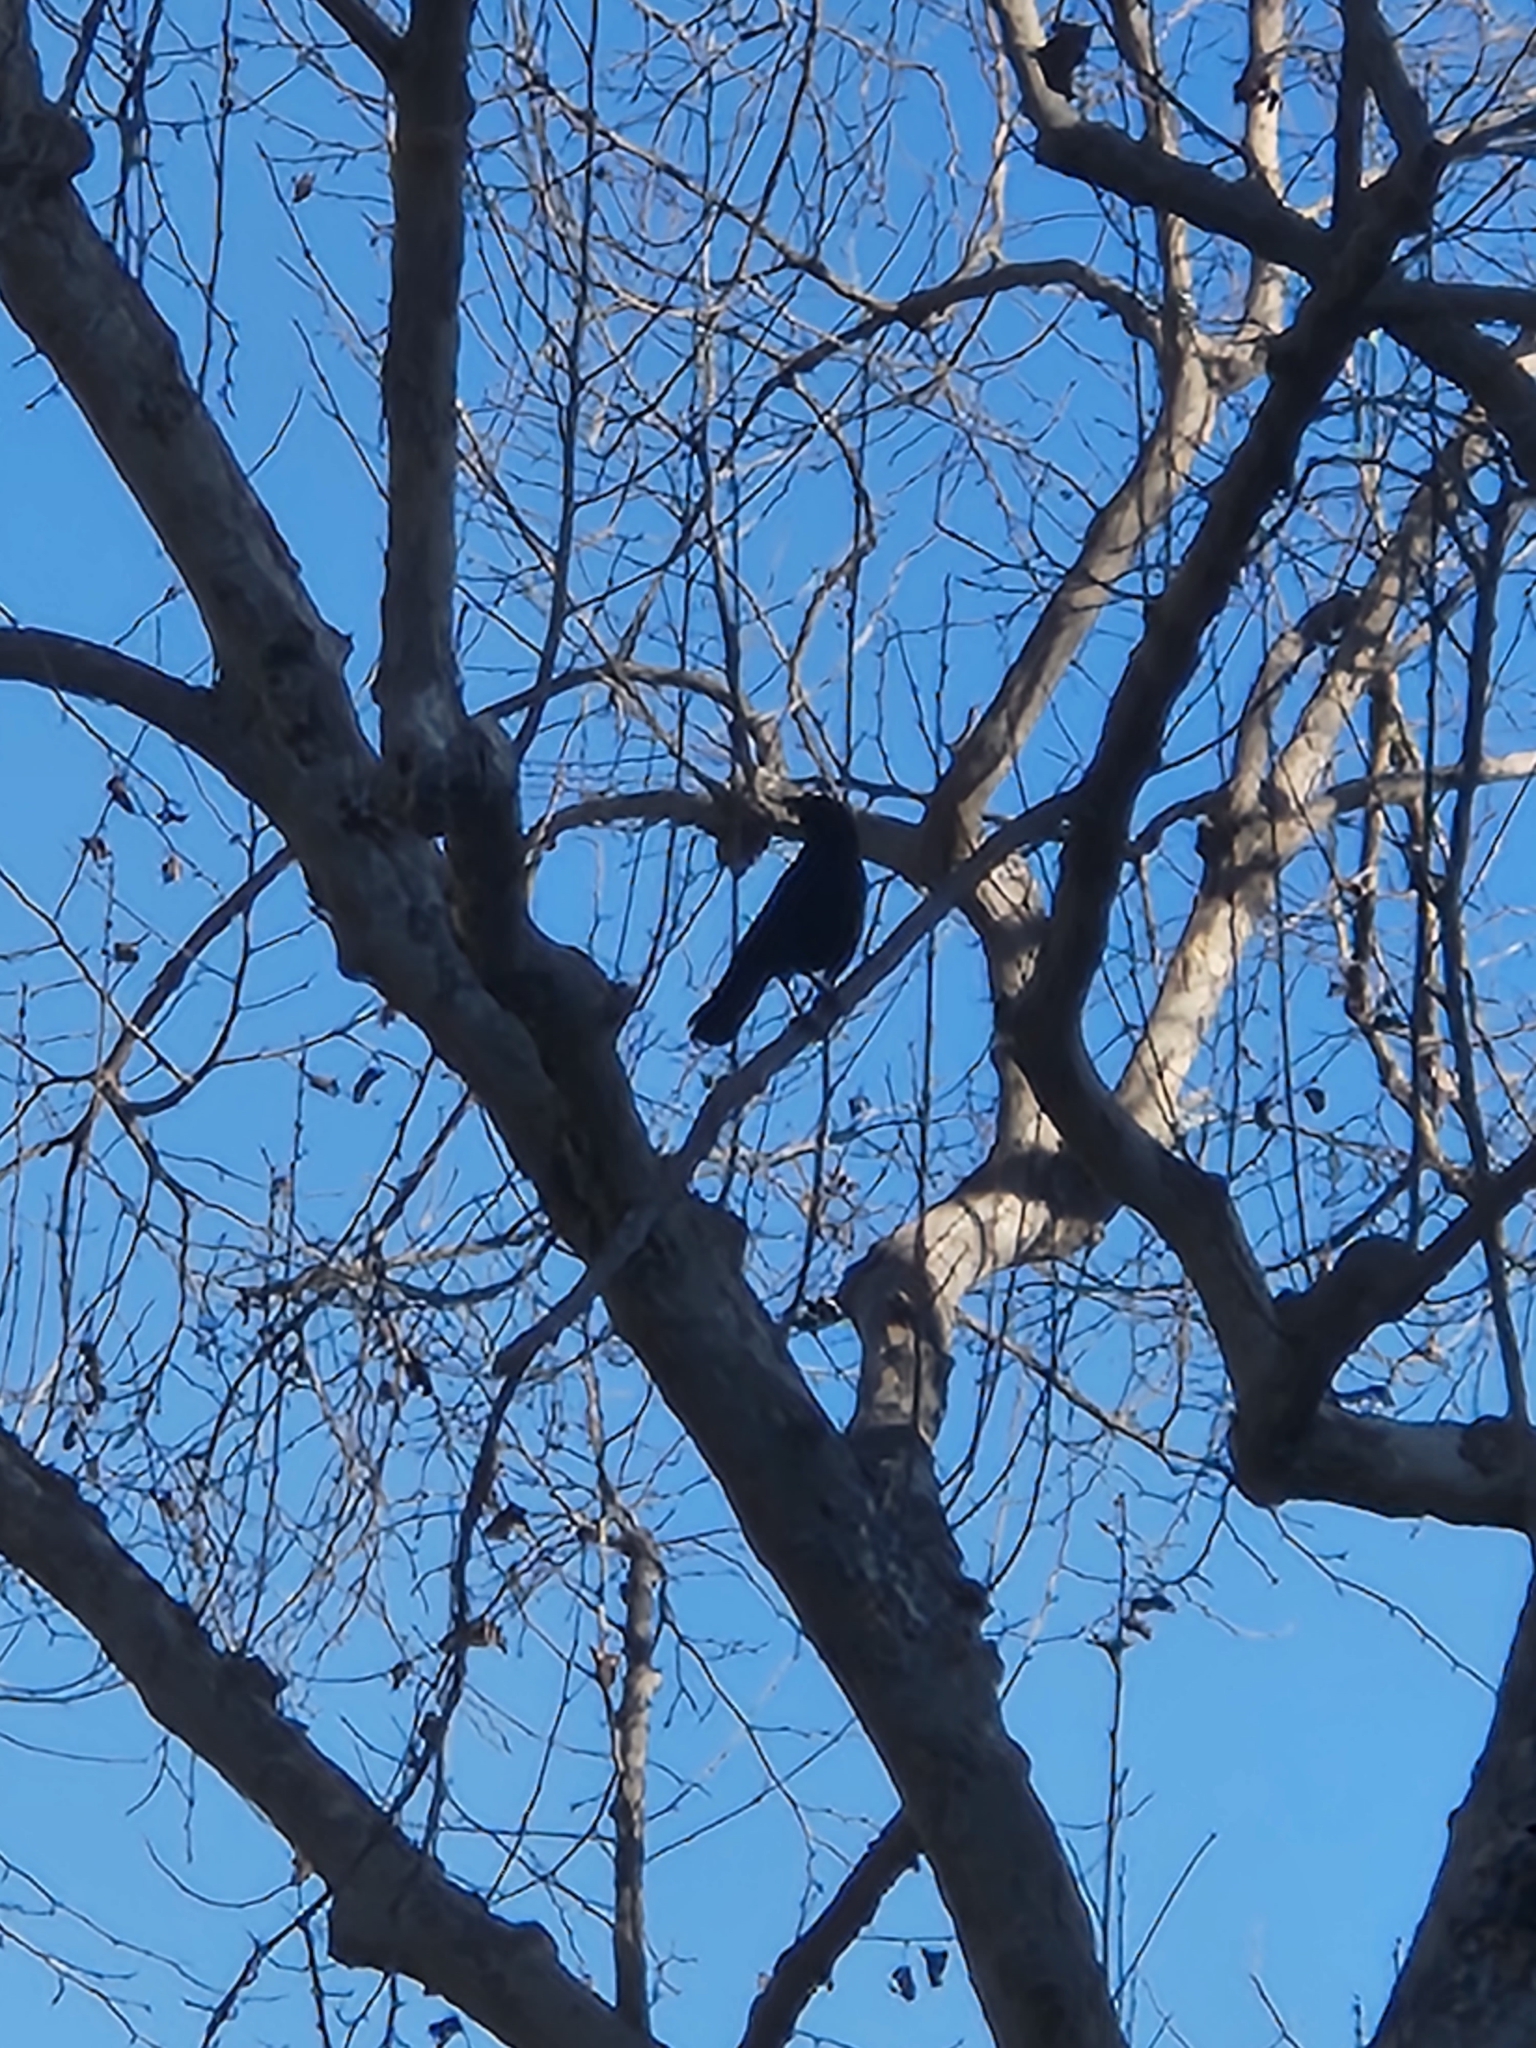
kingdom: Animalia
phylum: Chordata
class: Aves
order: Passeriformes
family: Corvidae
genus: Corvus
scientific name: Corvus brachyrhynchos
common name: American crow
